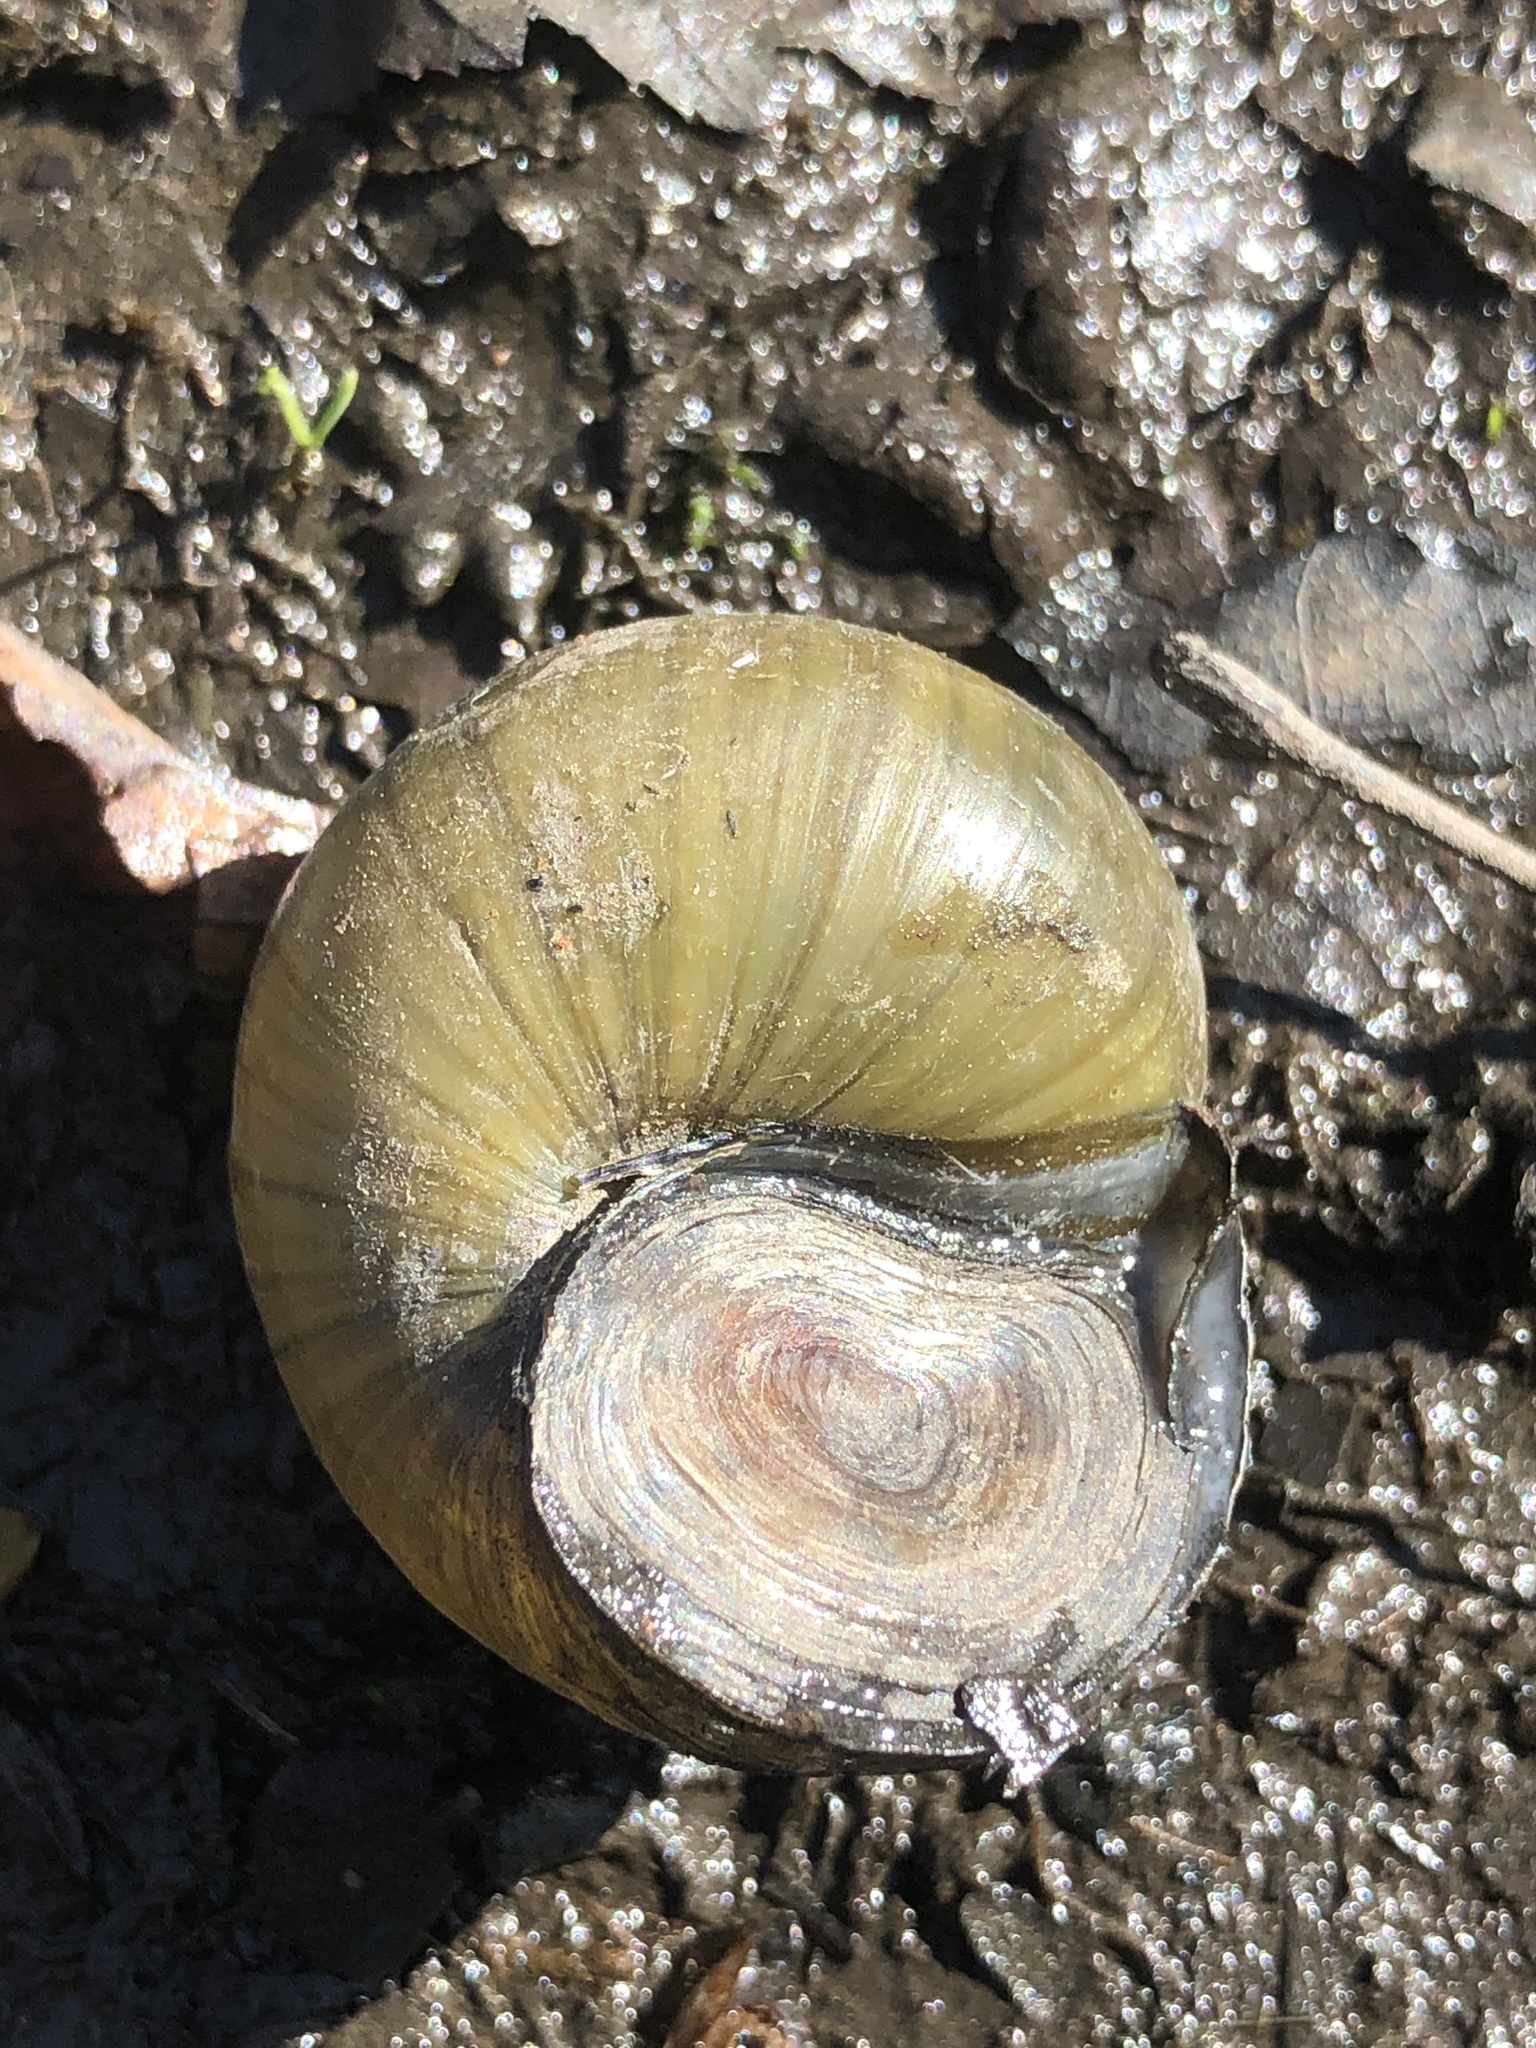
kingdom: Animalia
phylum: Mollusca
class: Gastropoda
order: Architaenioglossa
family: Viviparidae
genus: Cipangopaludina
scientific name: Cipangopaludina chinensis
